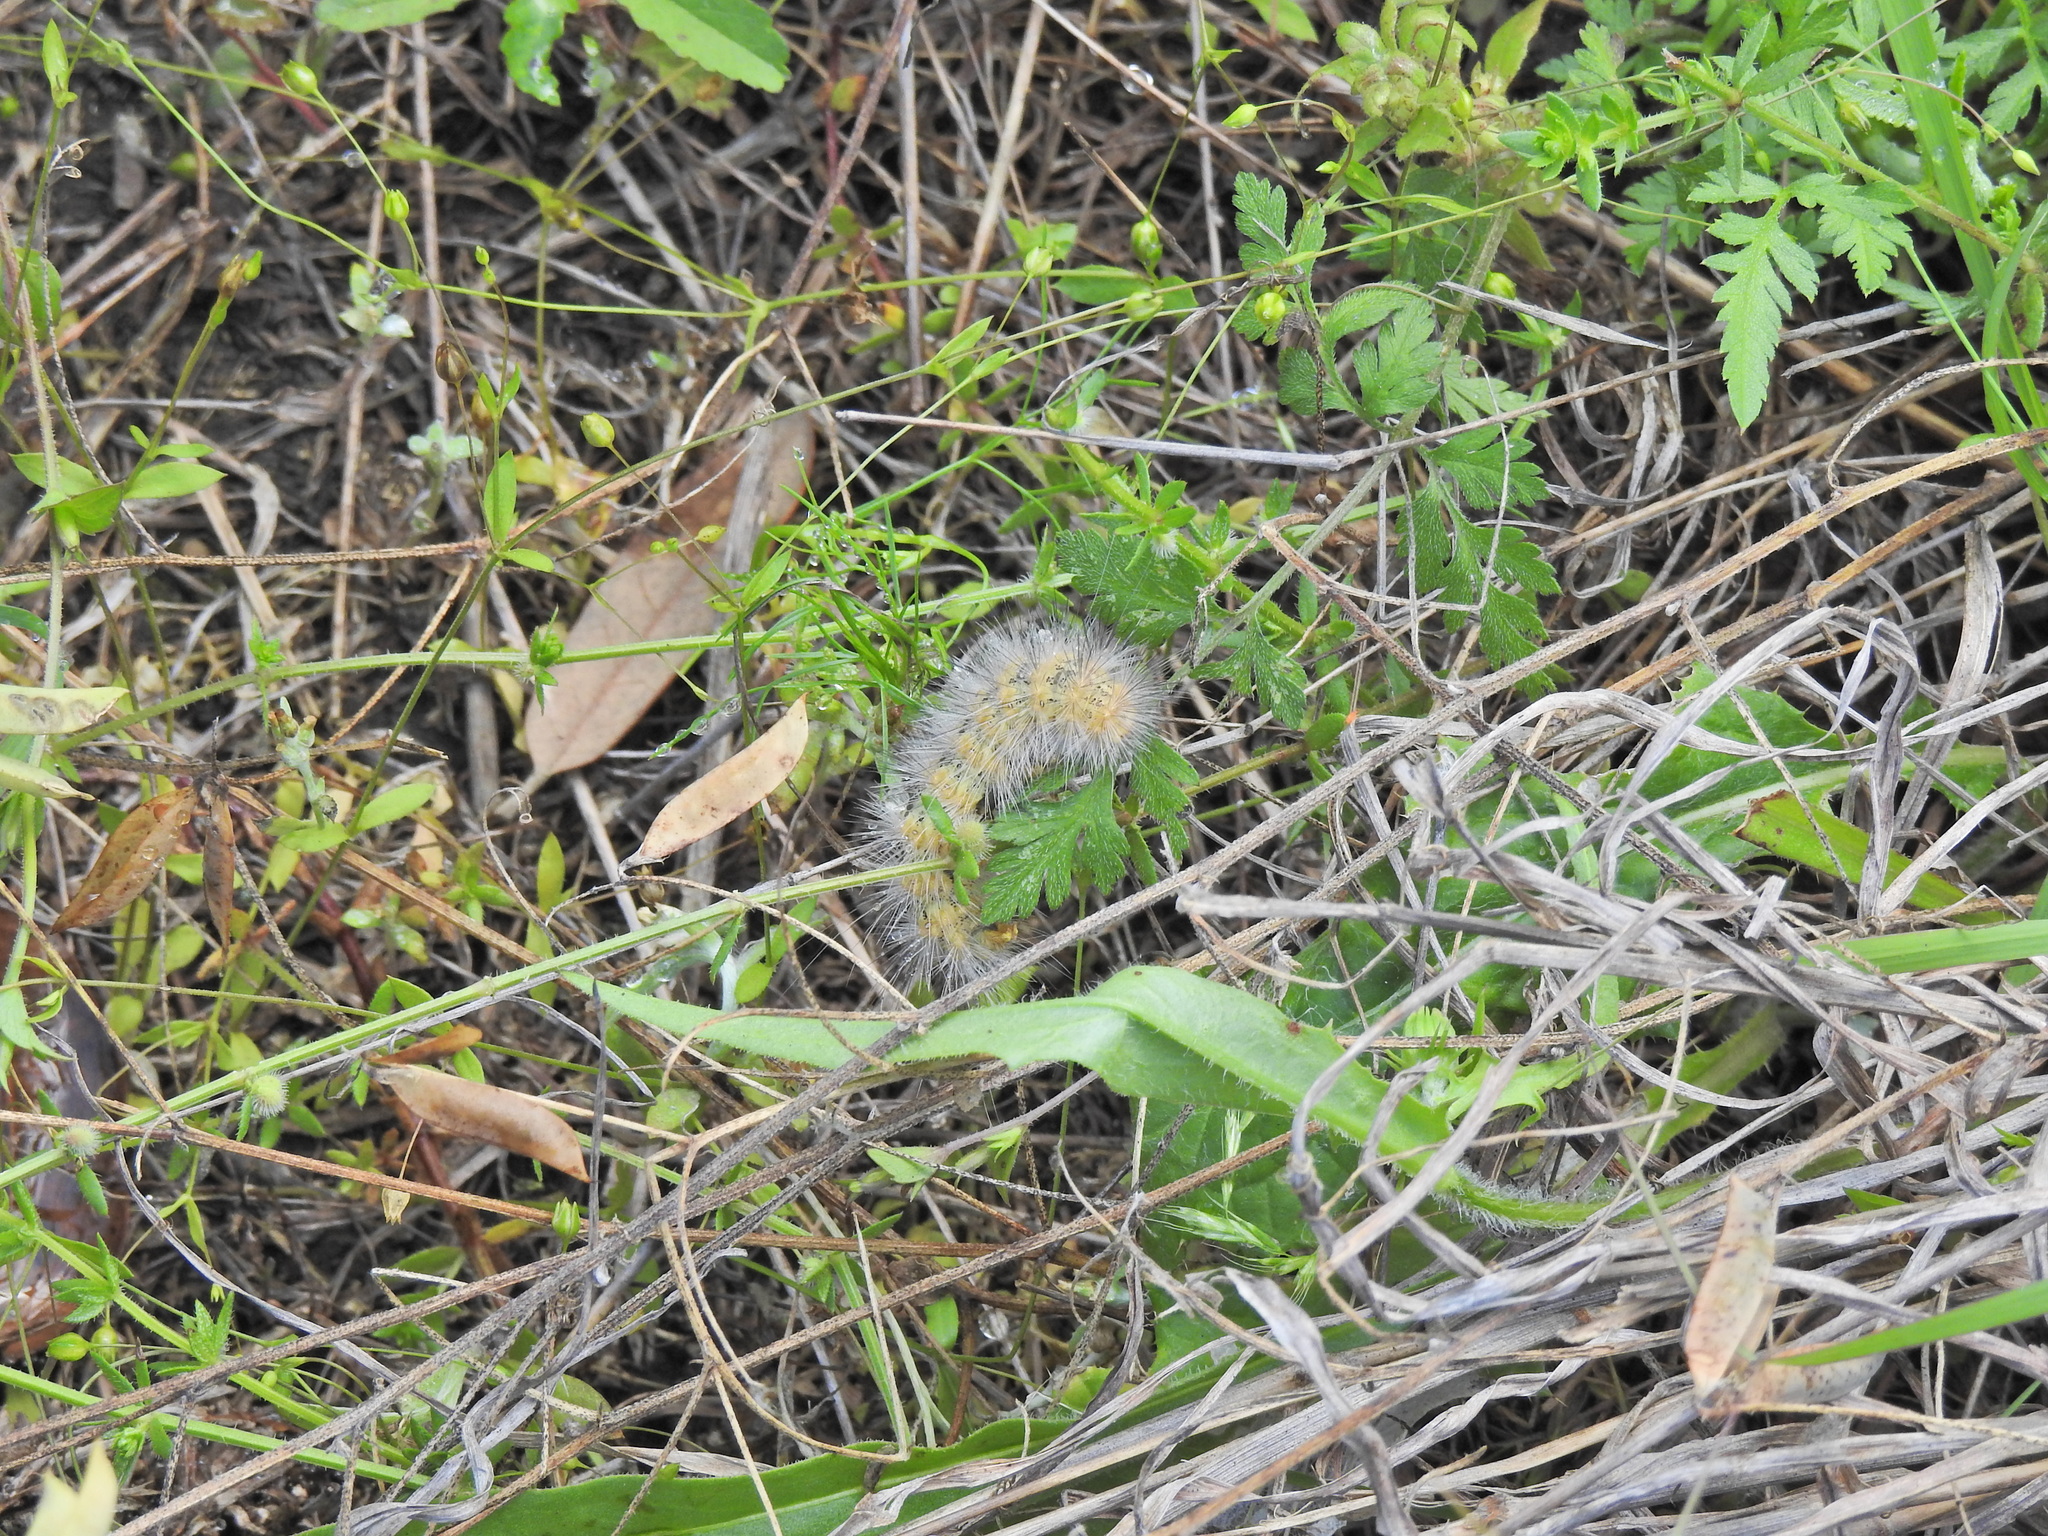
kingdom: Animalia
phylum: Arthropoda
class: Insecta
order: Lepidoptera
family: Erebidae
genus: Estigmene
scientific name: Estigmene acrea
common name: Salt marsh moth
